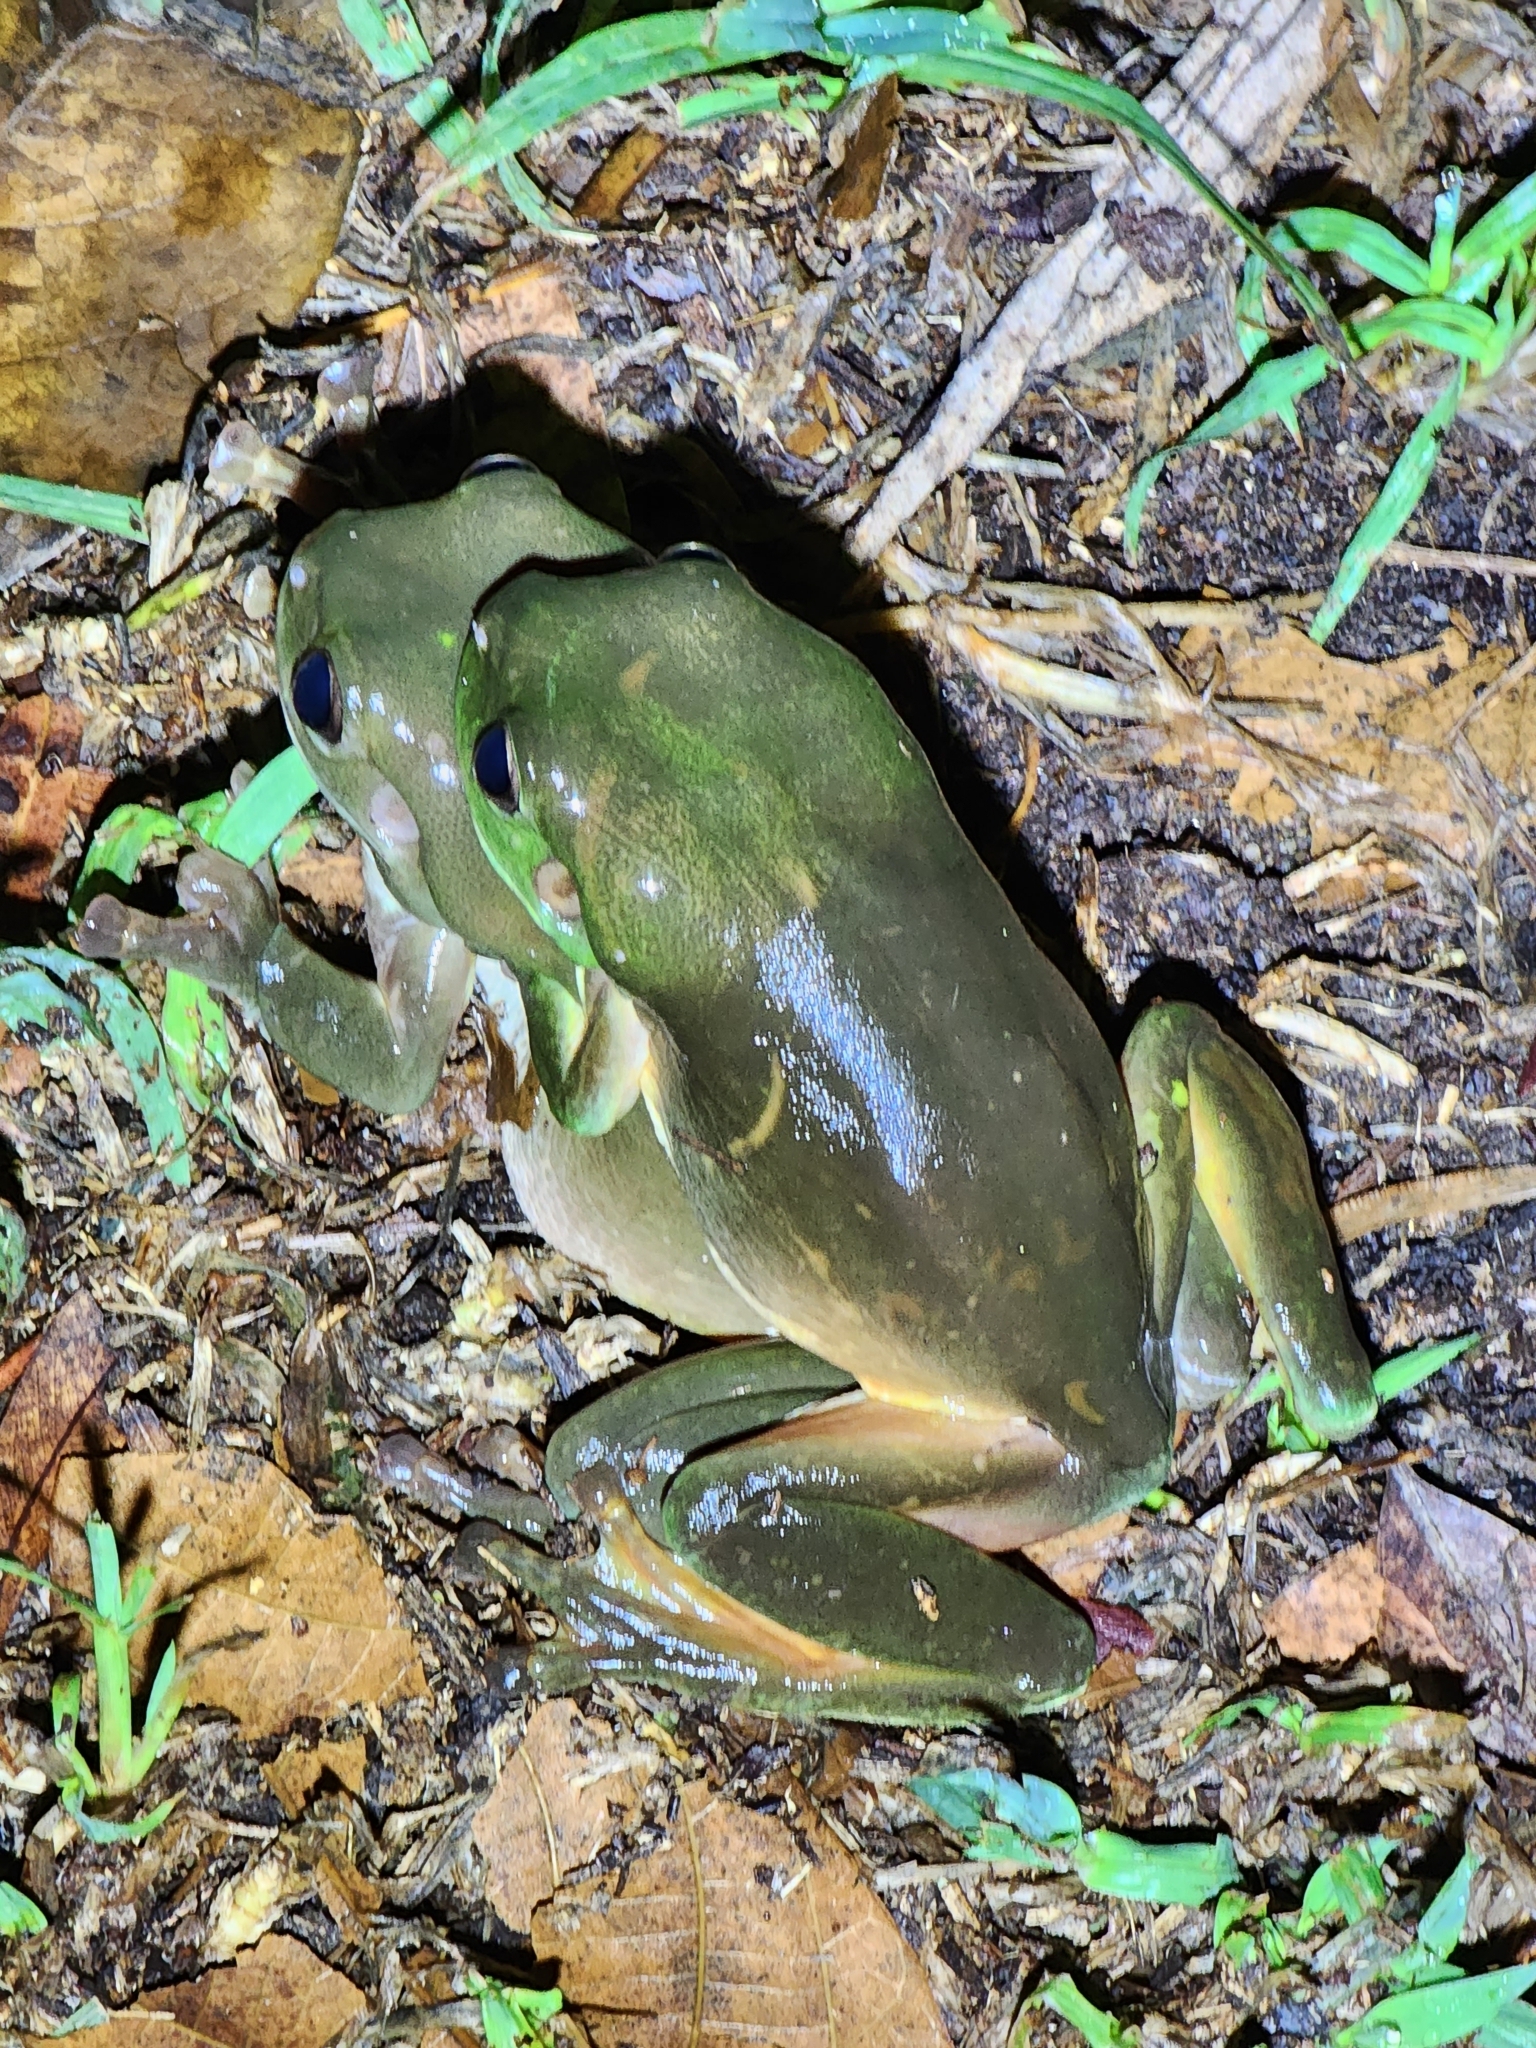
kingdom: Animalia
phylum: Chordata
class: Amphibia
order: Anura
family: Pelodryadidae
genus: Ranoidea
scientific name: Ranoidea caerulea
